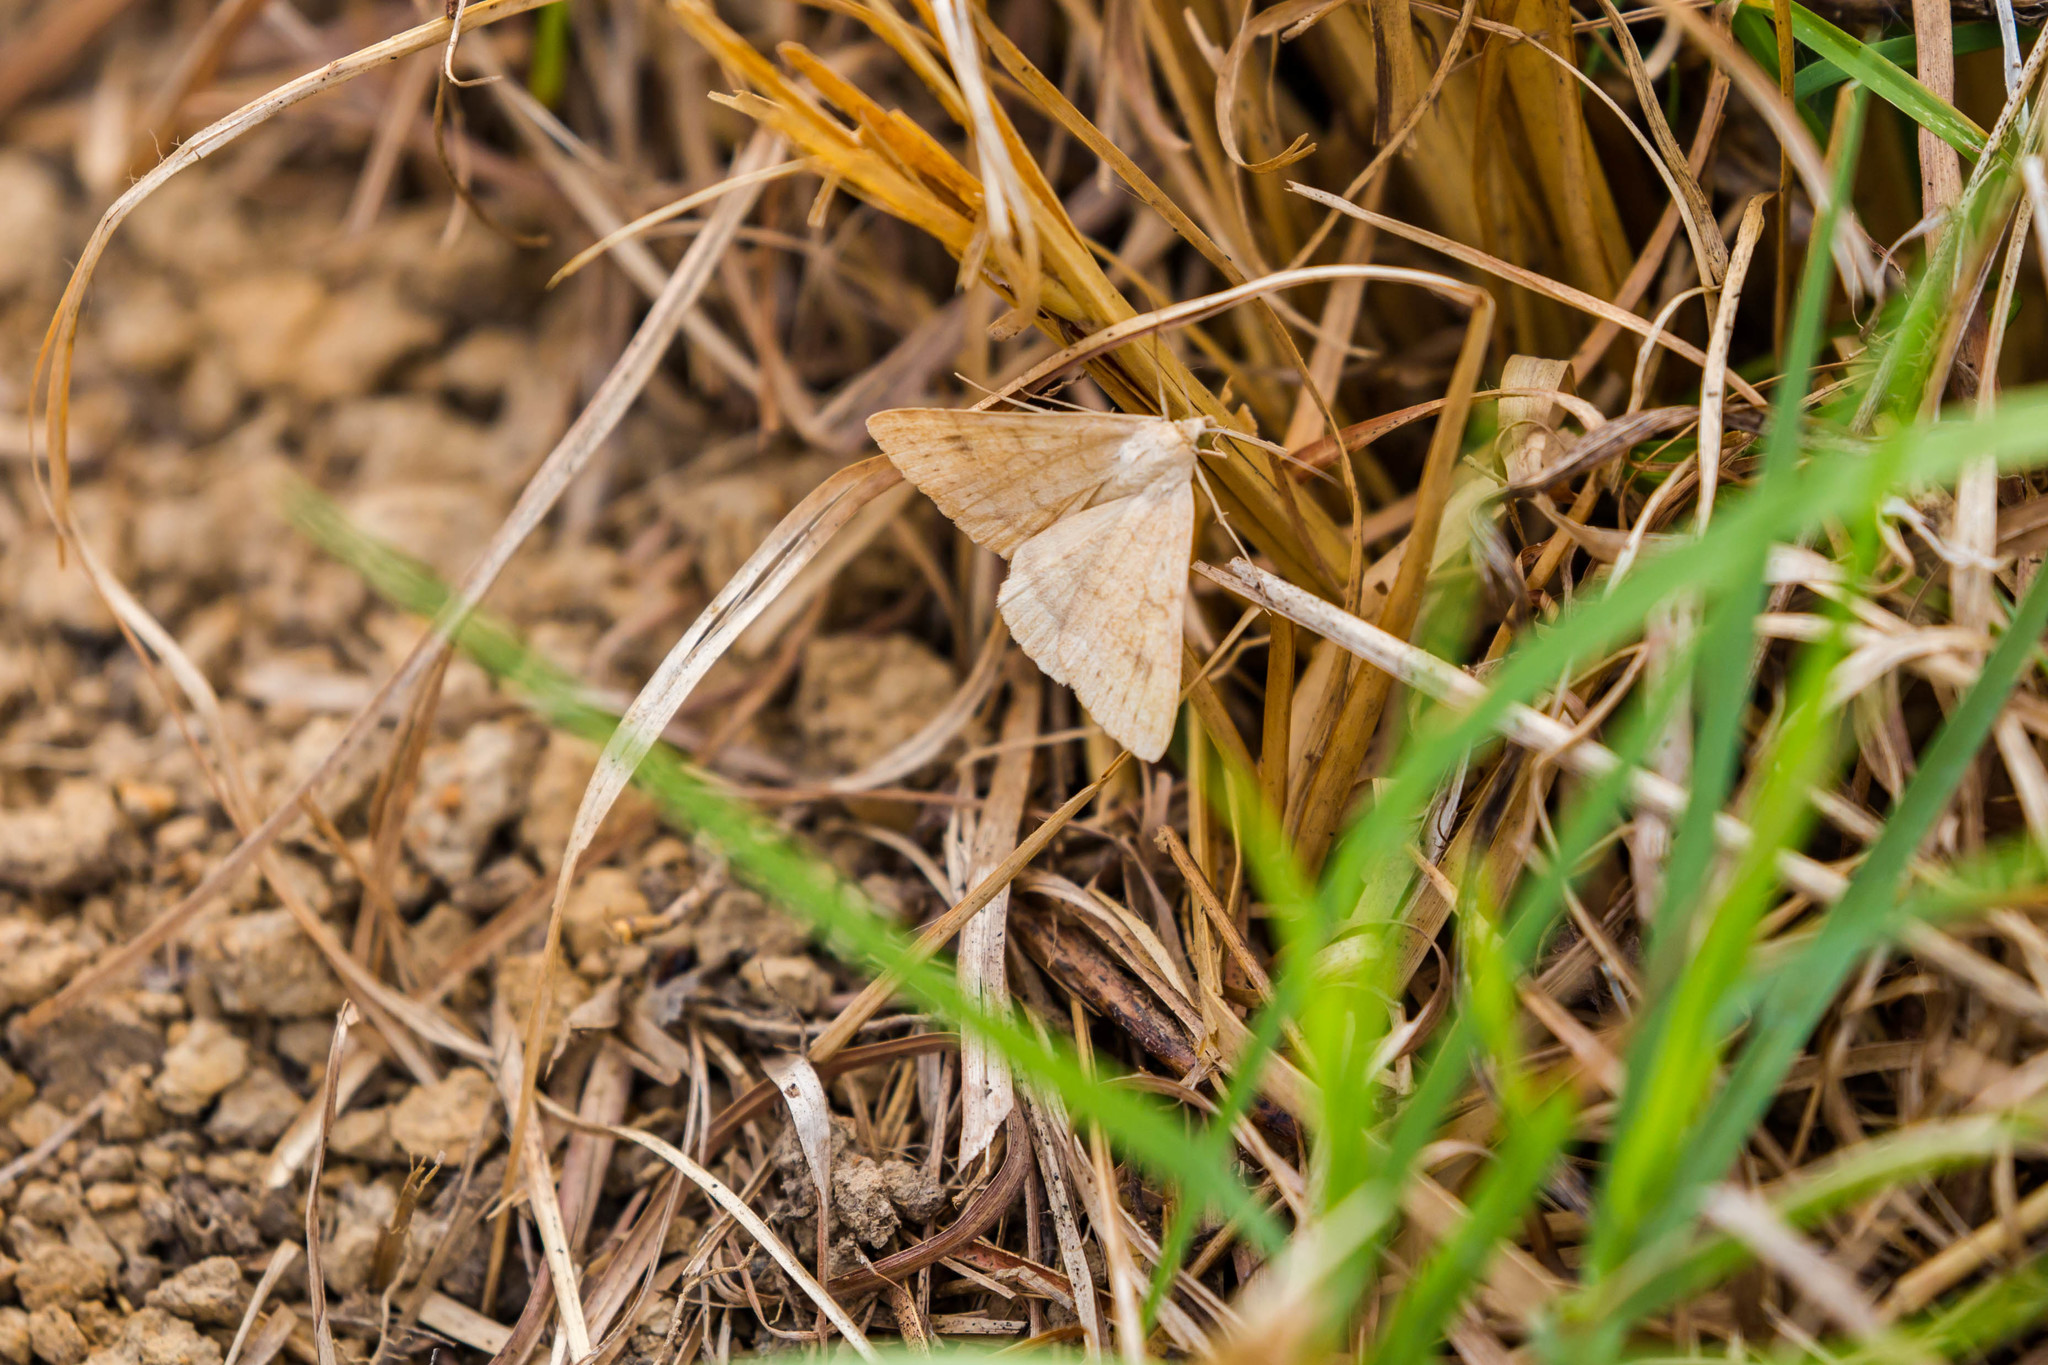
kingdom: Animalia
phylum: Arthropoda
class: Insecta
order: Lepidoptera
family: Erebidae
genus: Caenurgia
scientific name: Caenurgia chloropha
